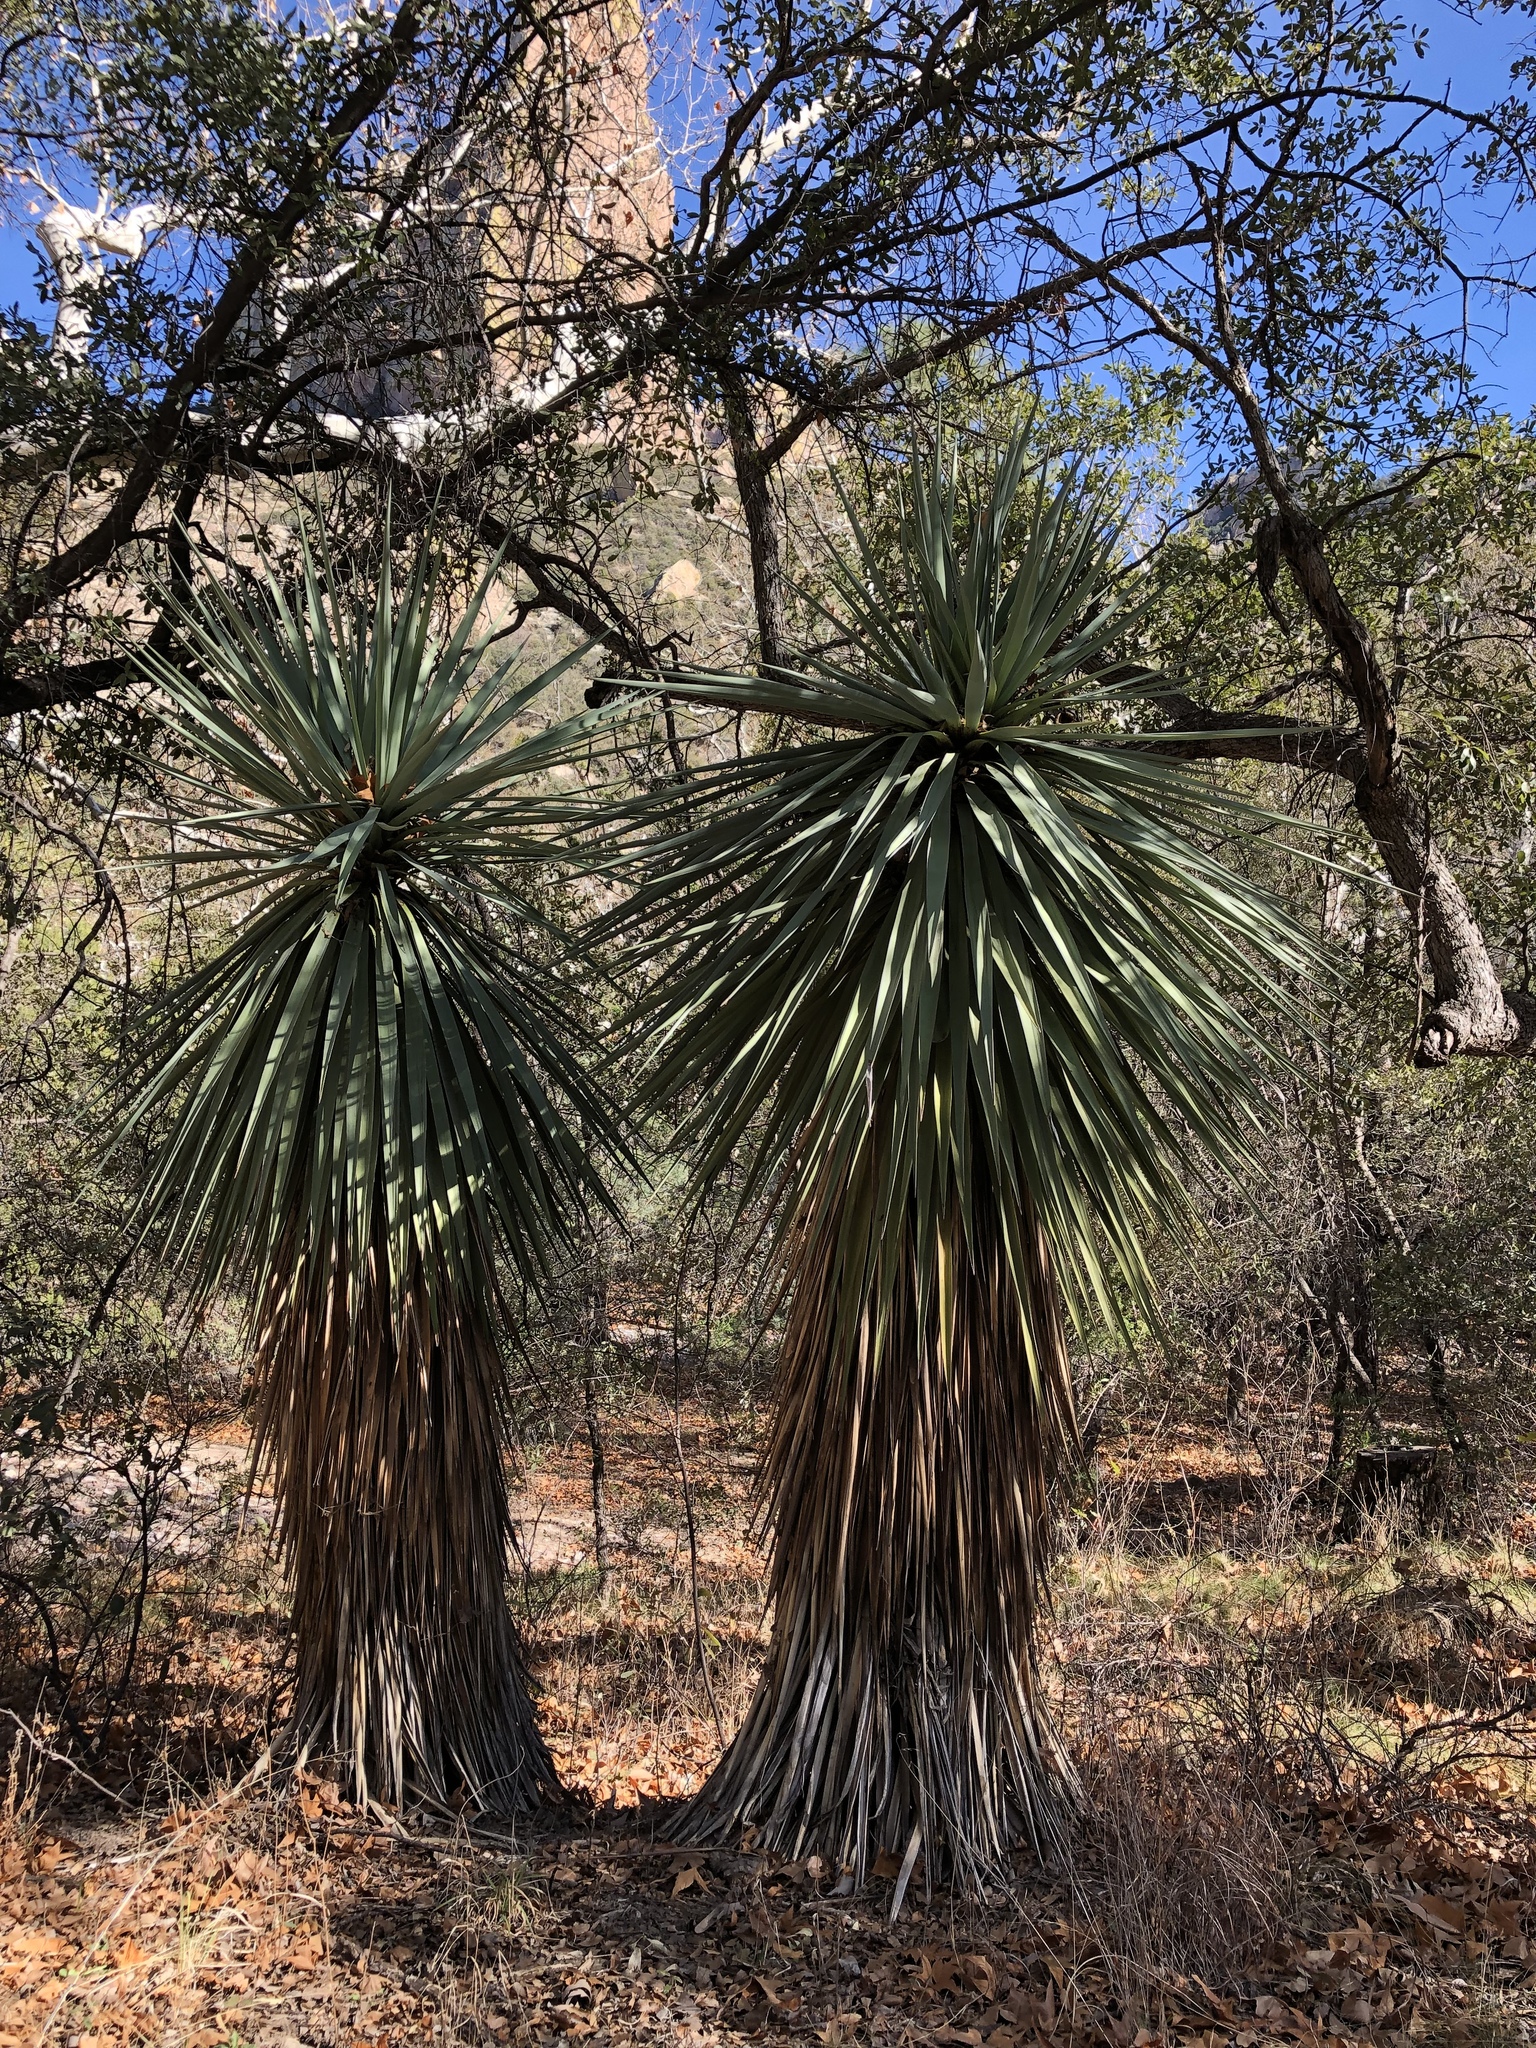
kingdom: Plantae
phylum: Tracheophyta
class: Liliopsida
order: Asparagales
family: Asparagaceae
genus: Yucca
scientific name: Yucca madrensis
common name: Hoary yucca
